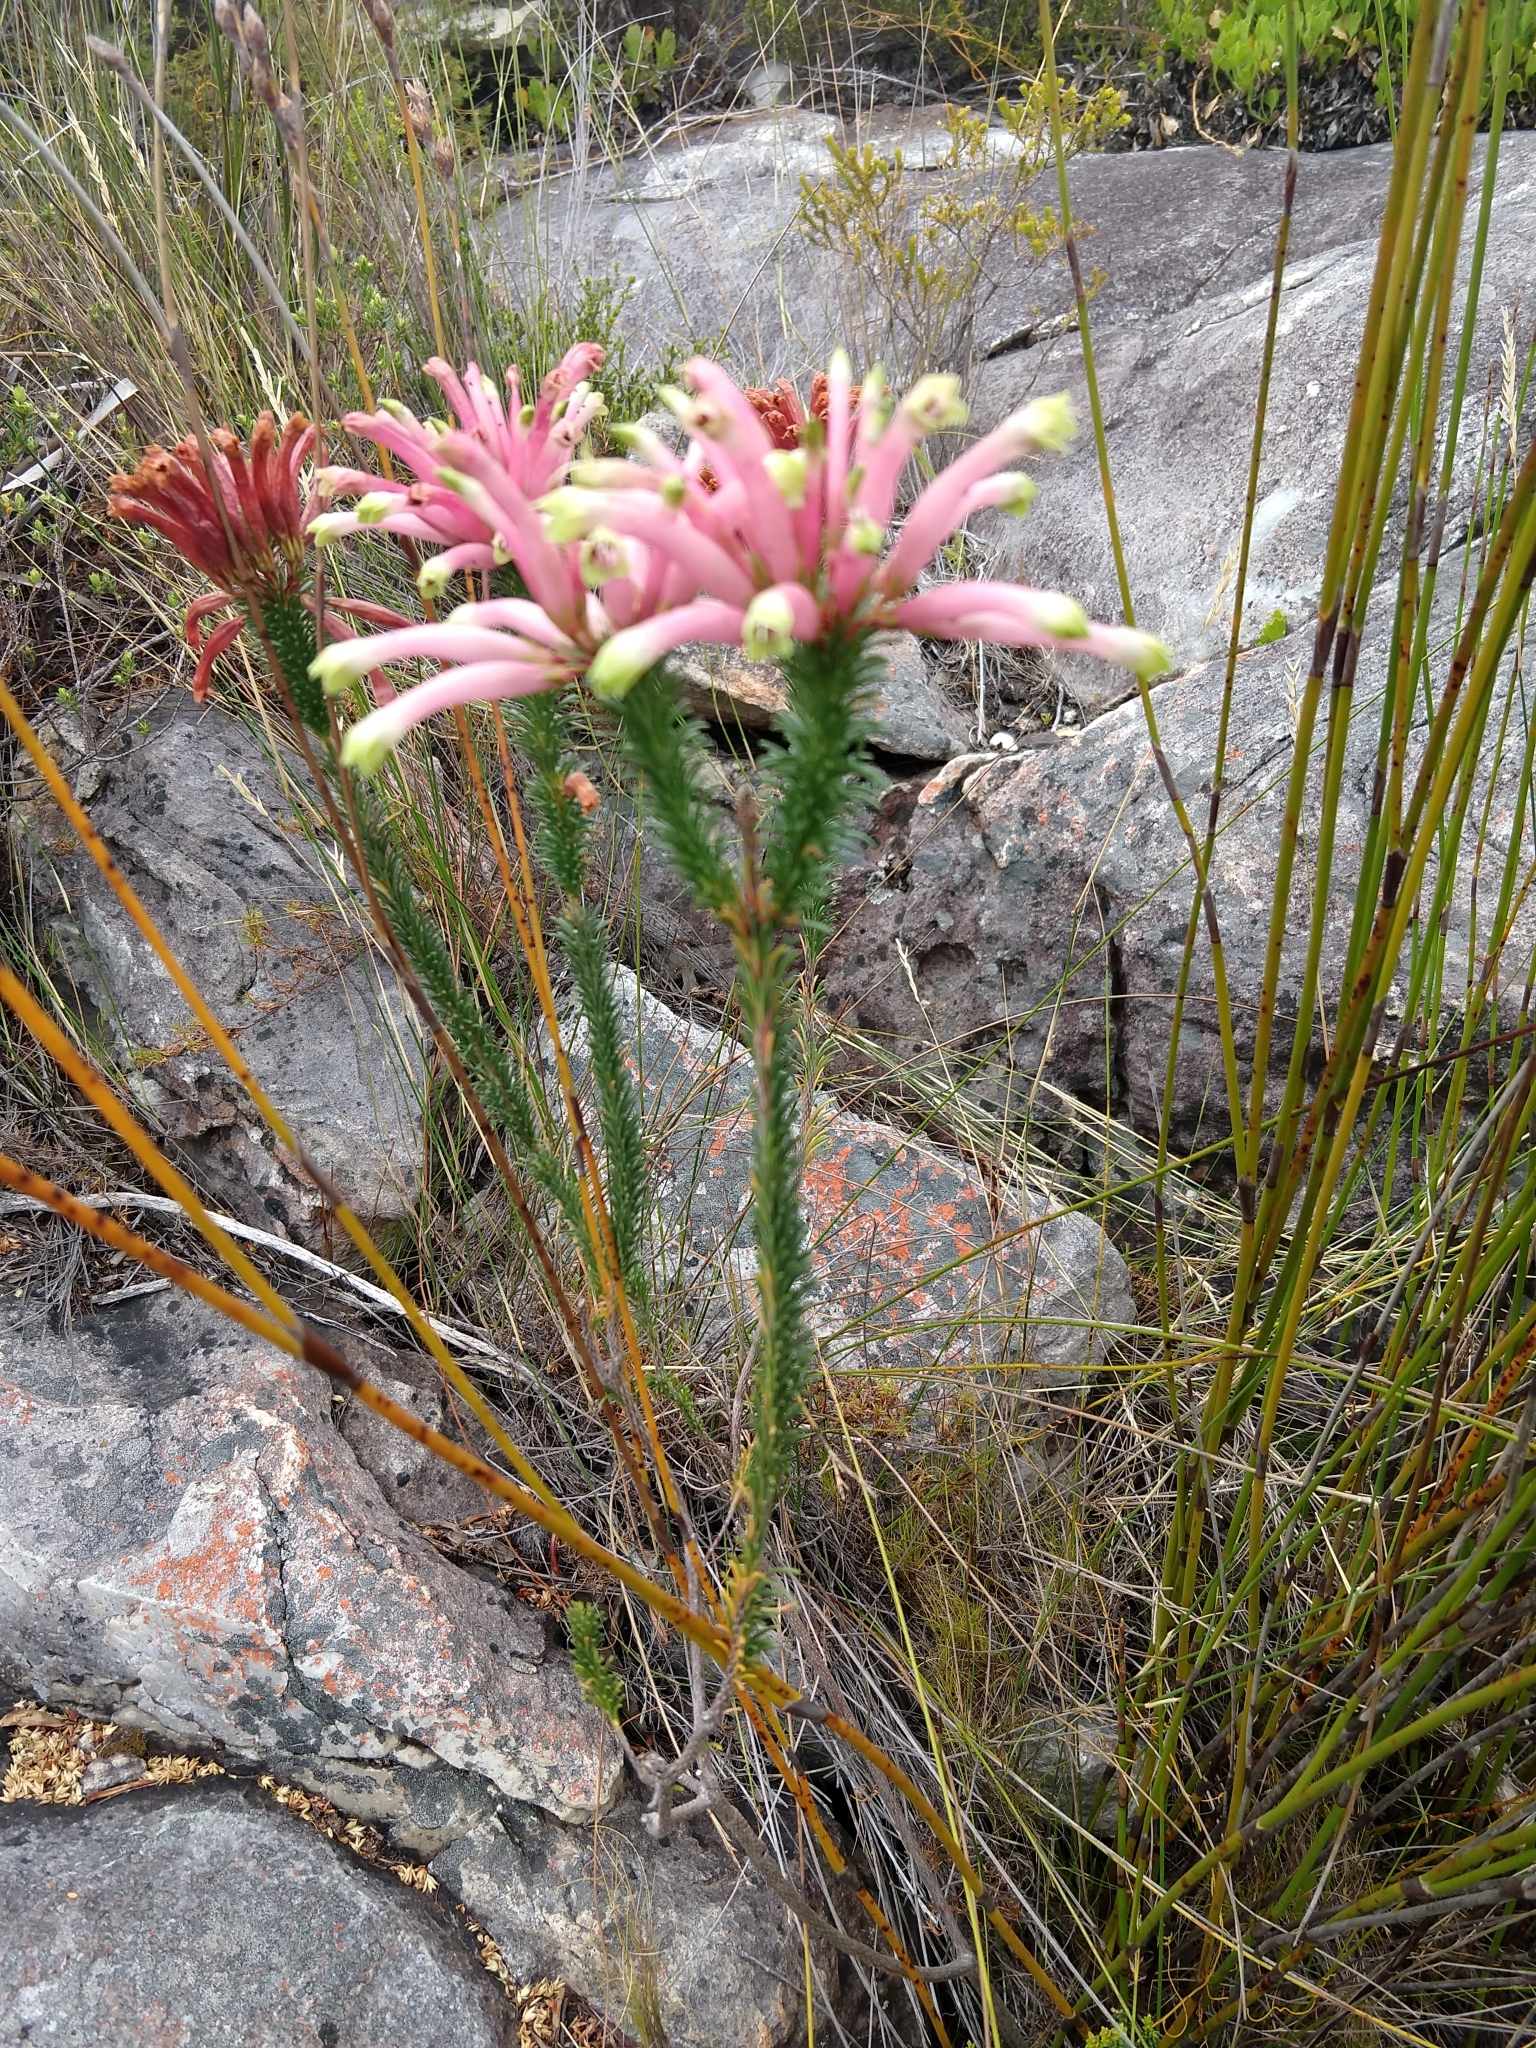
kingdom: Plantae
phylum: Tracheophyta
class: Magnoliopsida
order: Ericales
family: Ericaceae
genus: Erica
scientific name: Erica fascicularis
